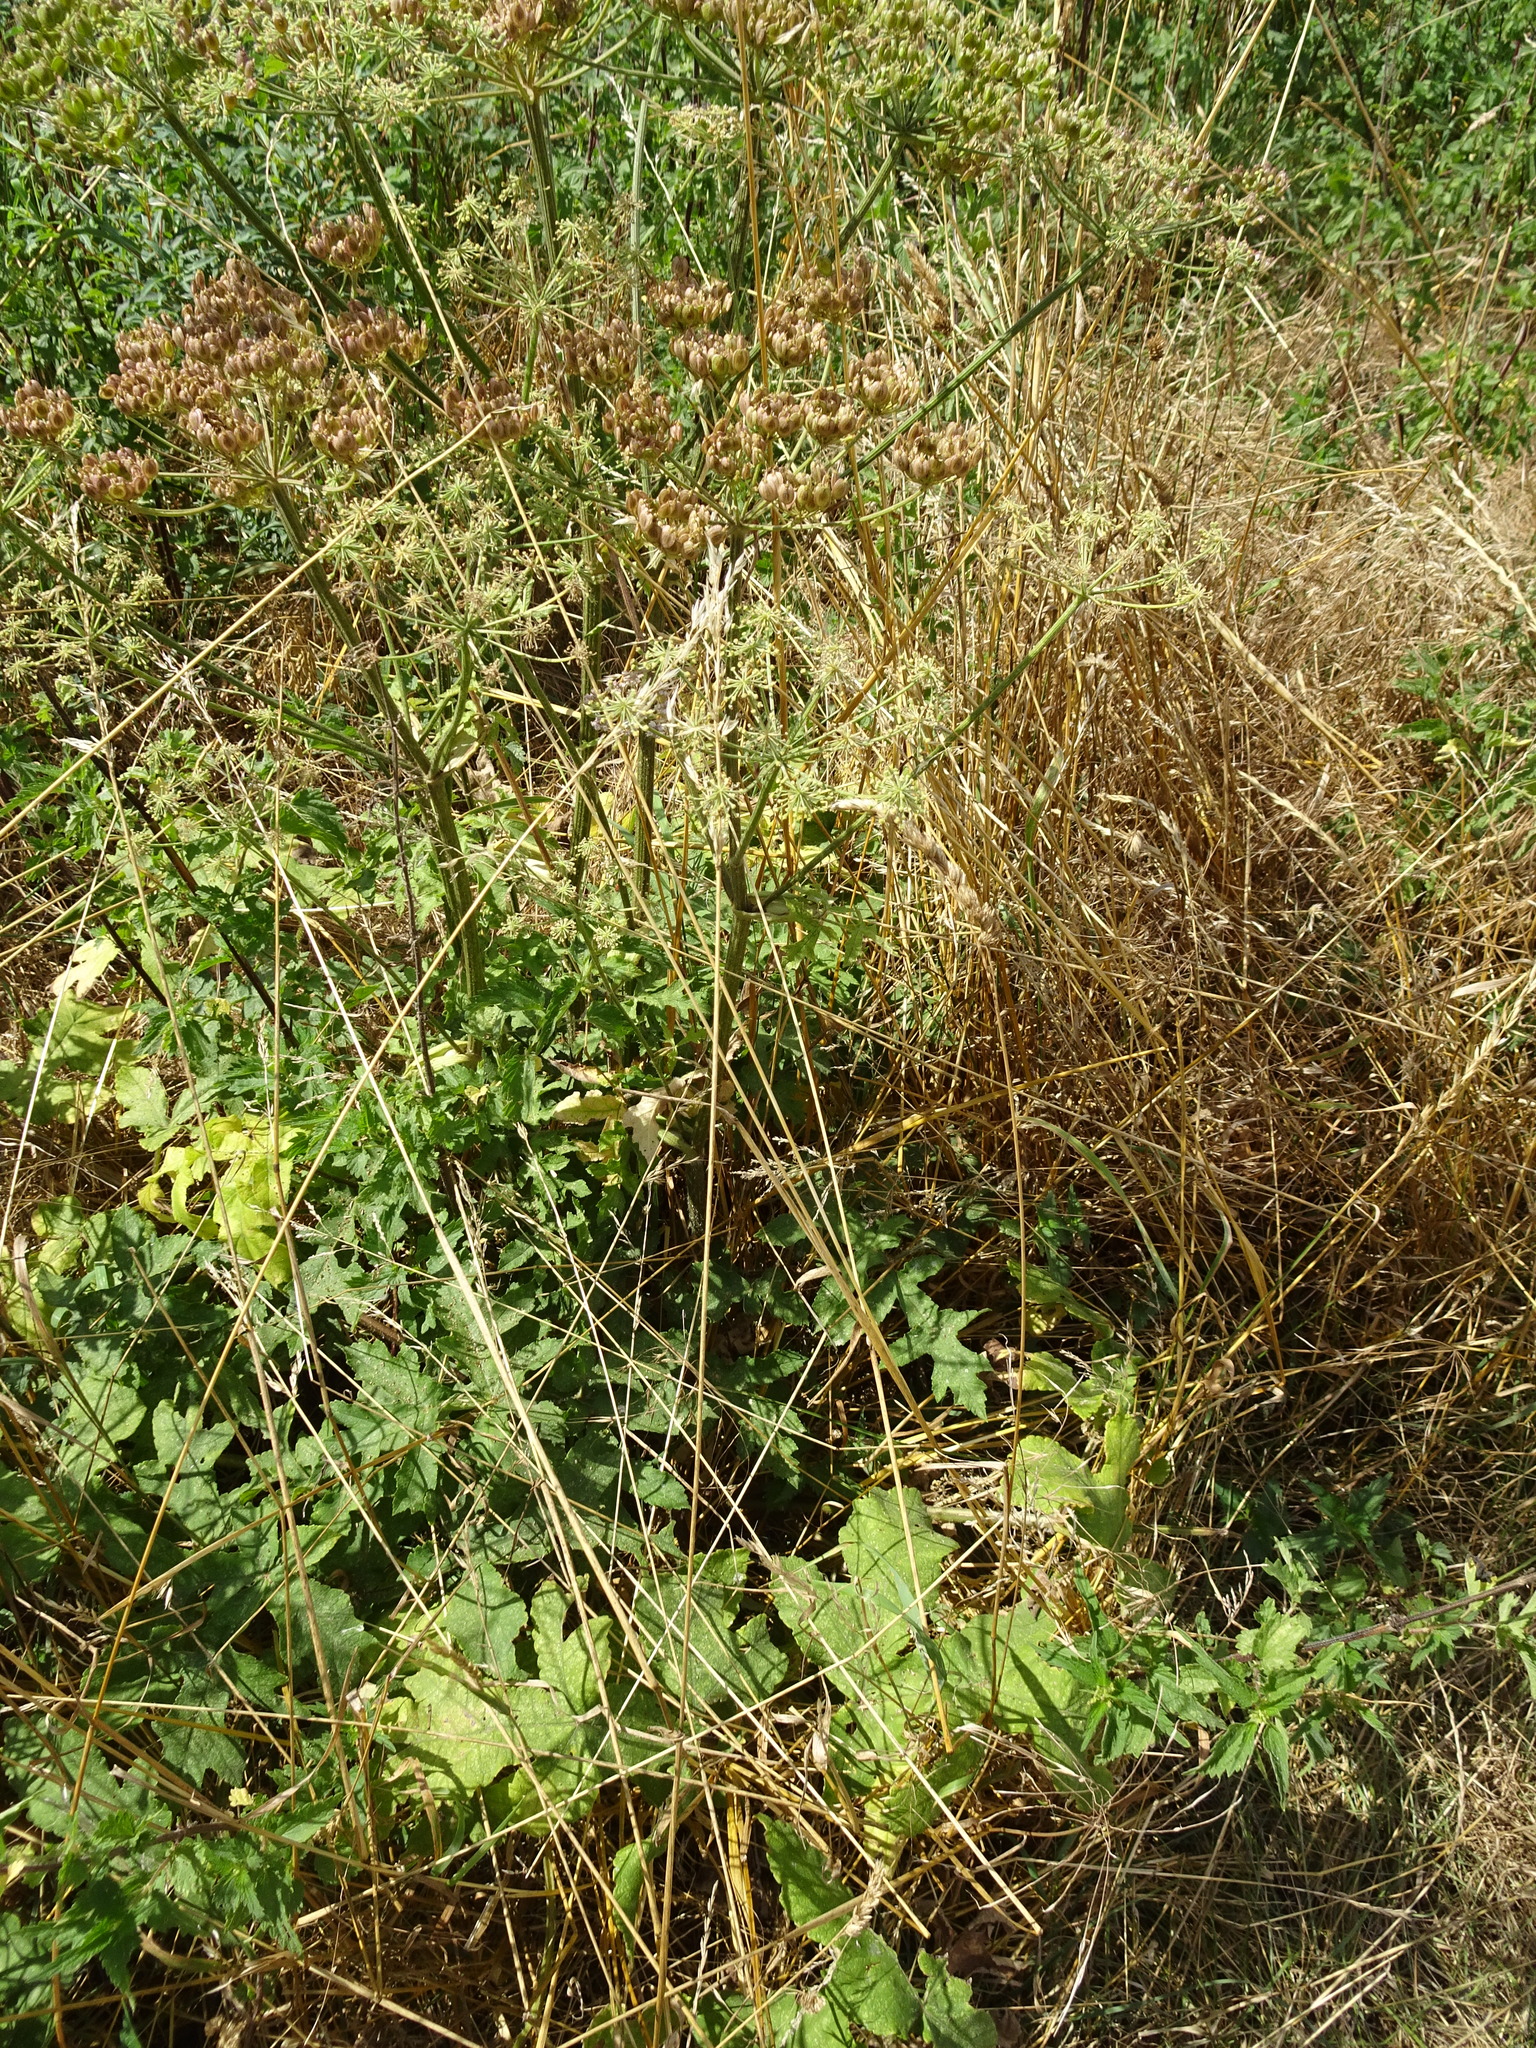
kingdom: Plantae
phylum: Tracheophyta
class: Magnoliopsida
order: Apiales
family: Apiaceae
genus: Heracleum
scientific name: Heracleum sphondylium
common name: Hogweed
